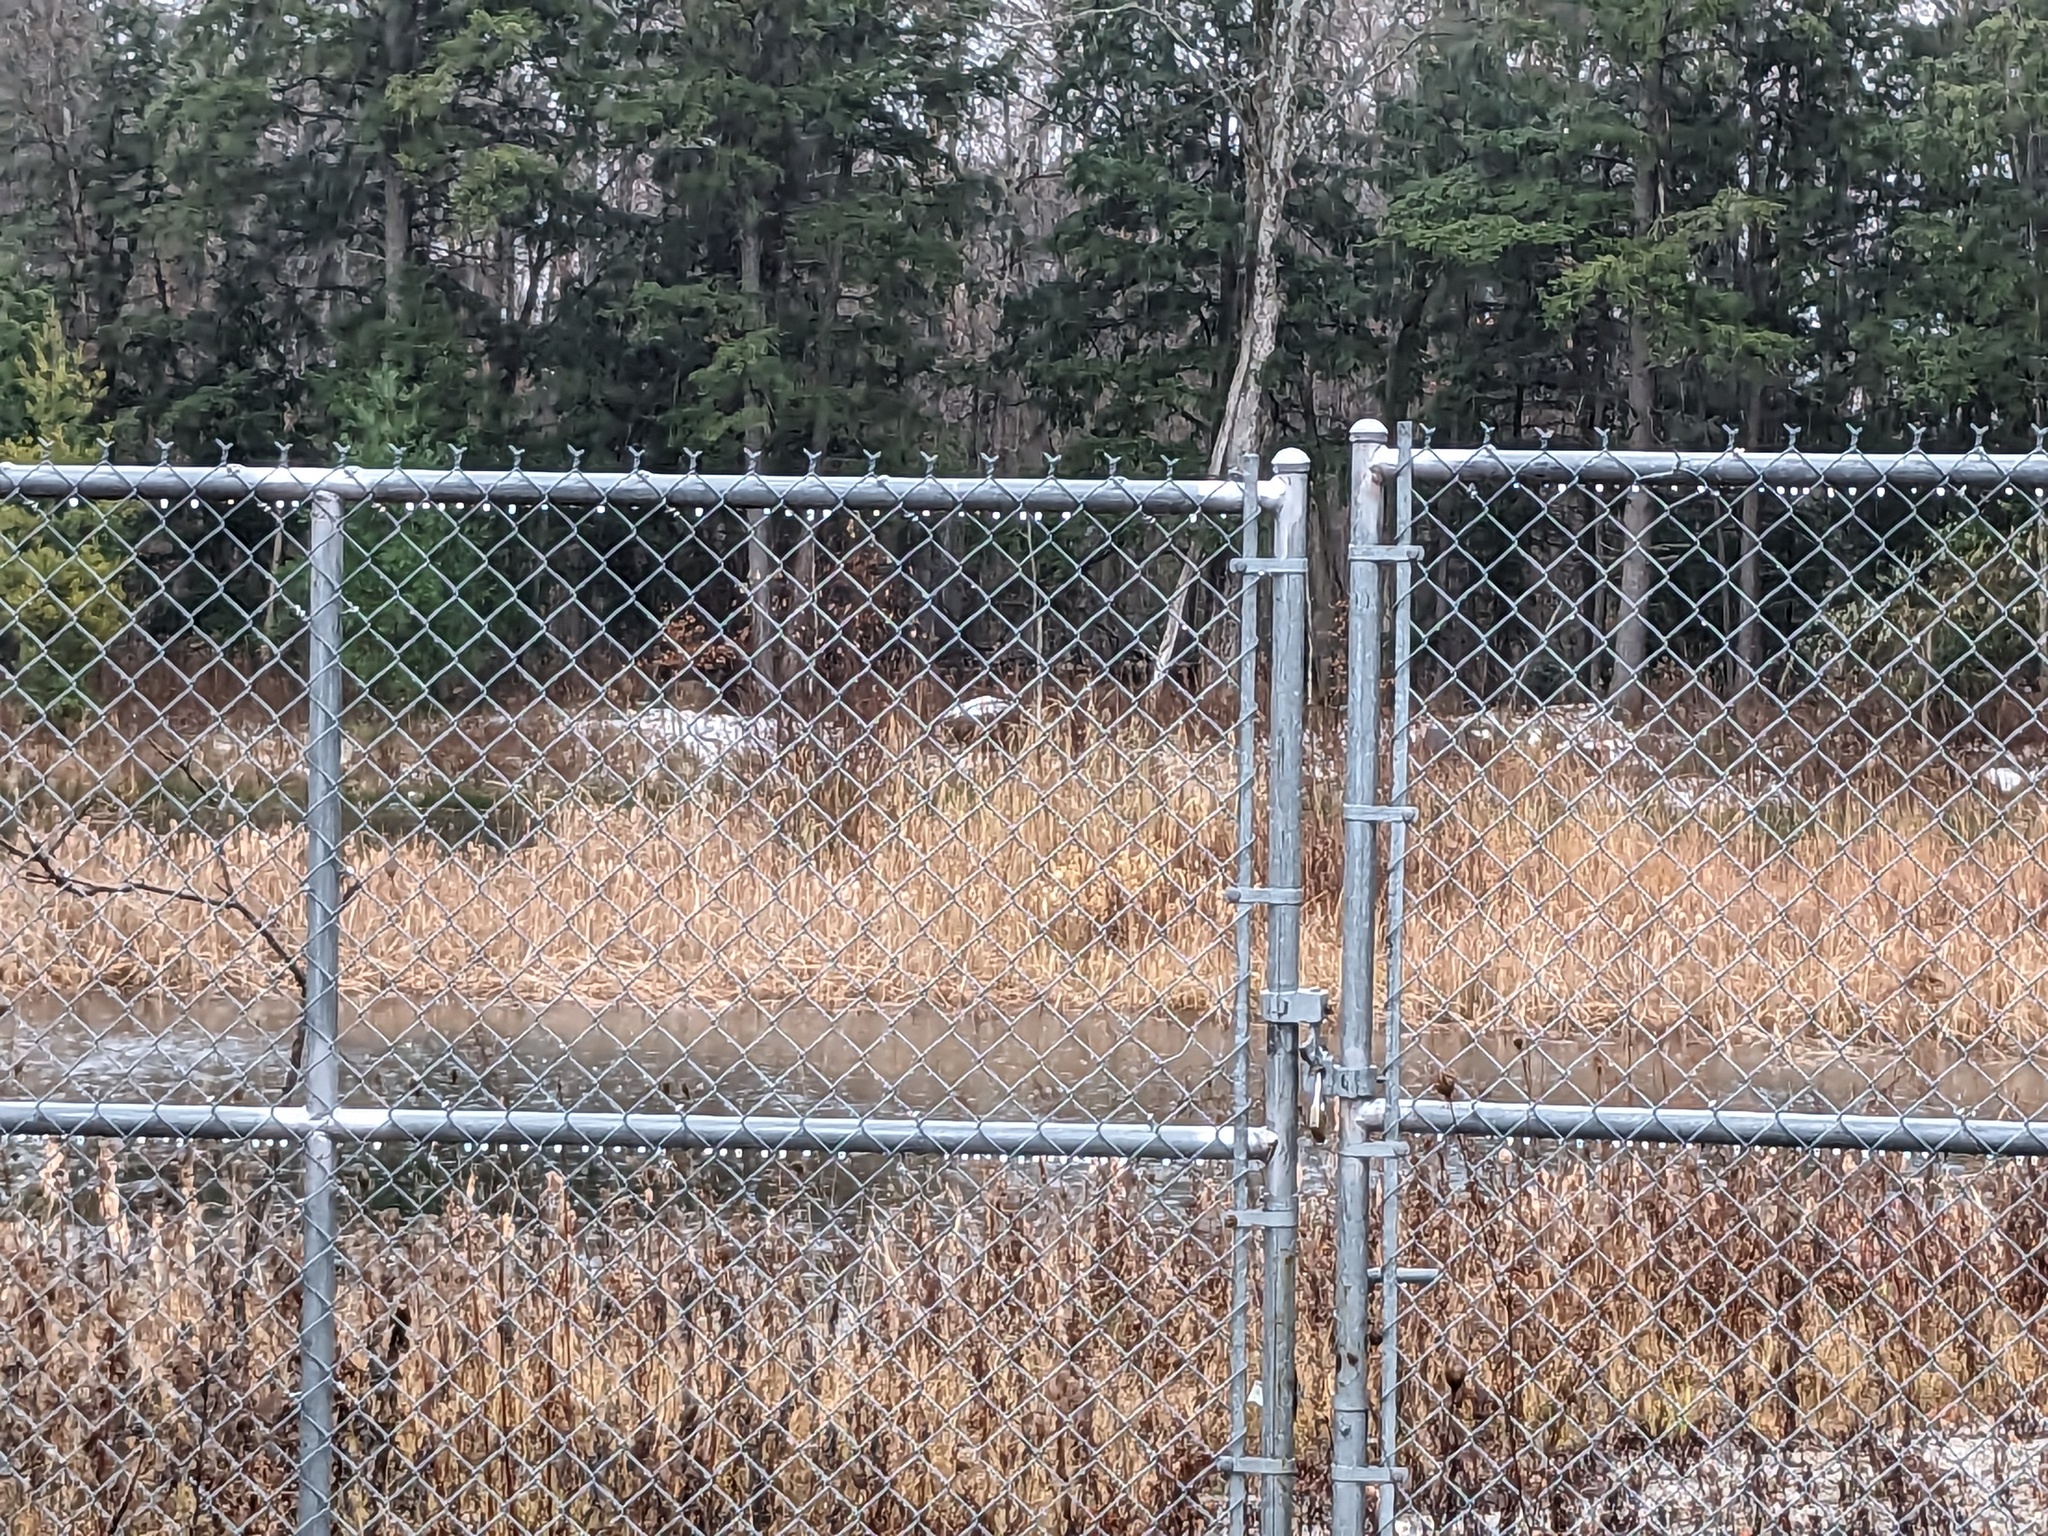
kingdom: Plantae
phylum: Tracheophyta
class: Liliopsida
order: Poales
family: Poaceae
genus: Phragmites
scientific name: Phragmites australis
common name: Common reed
